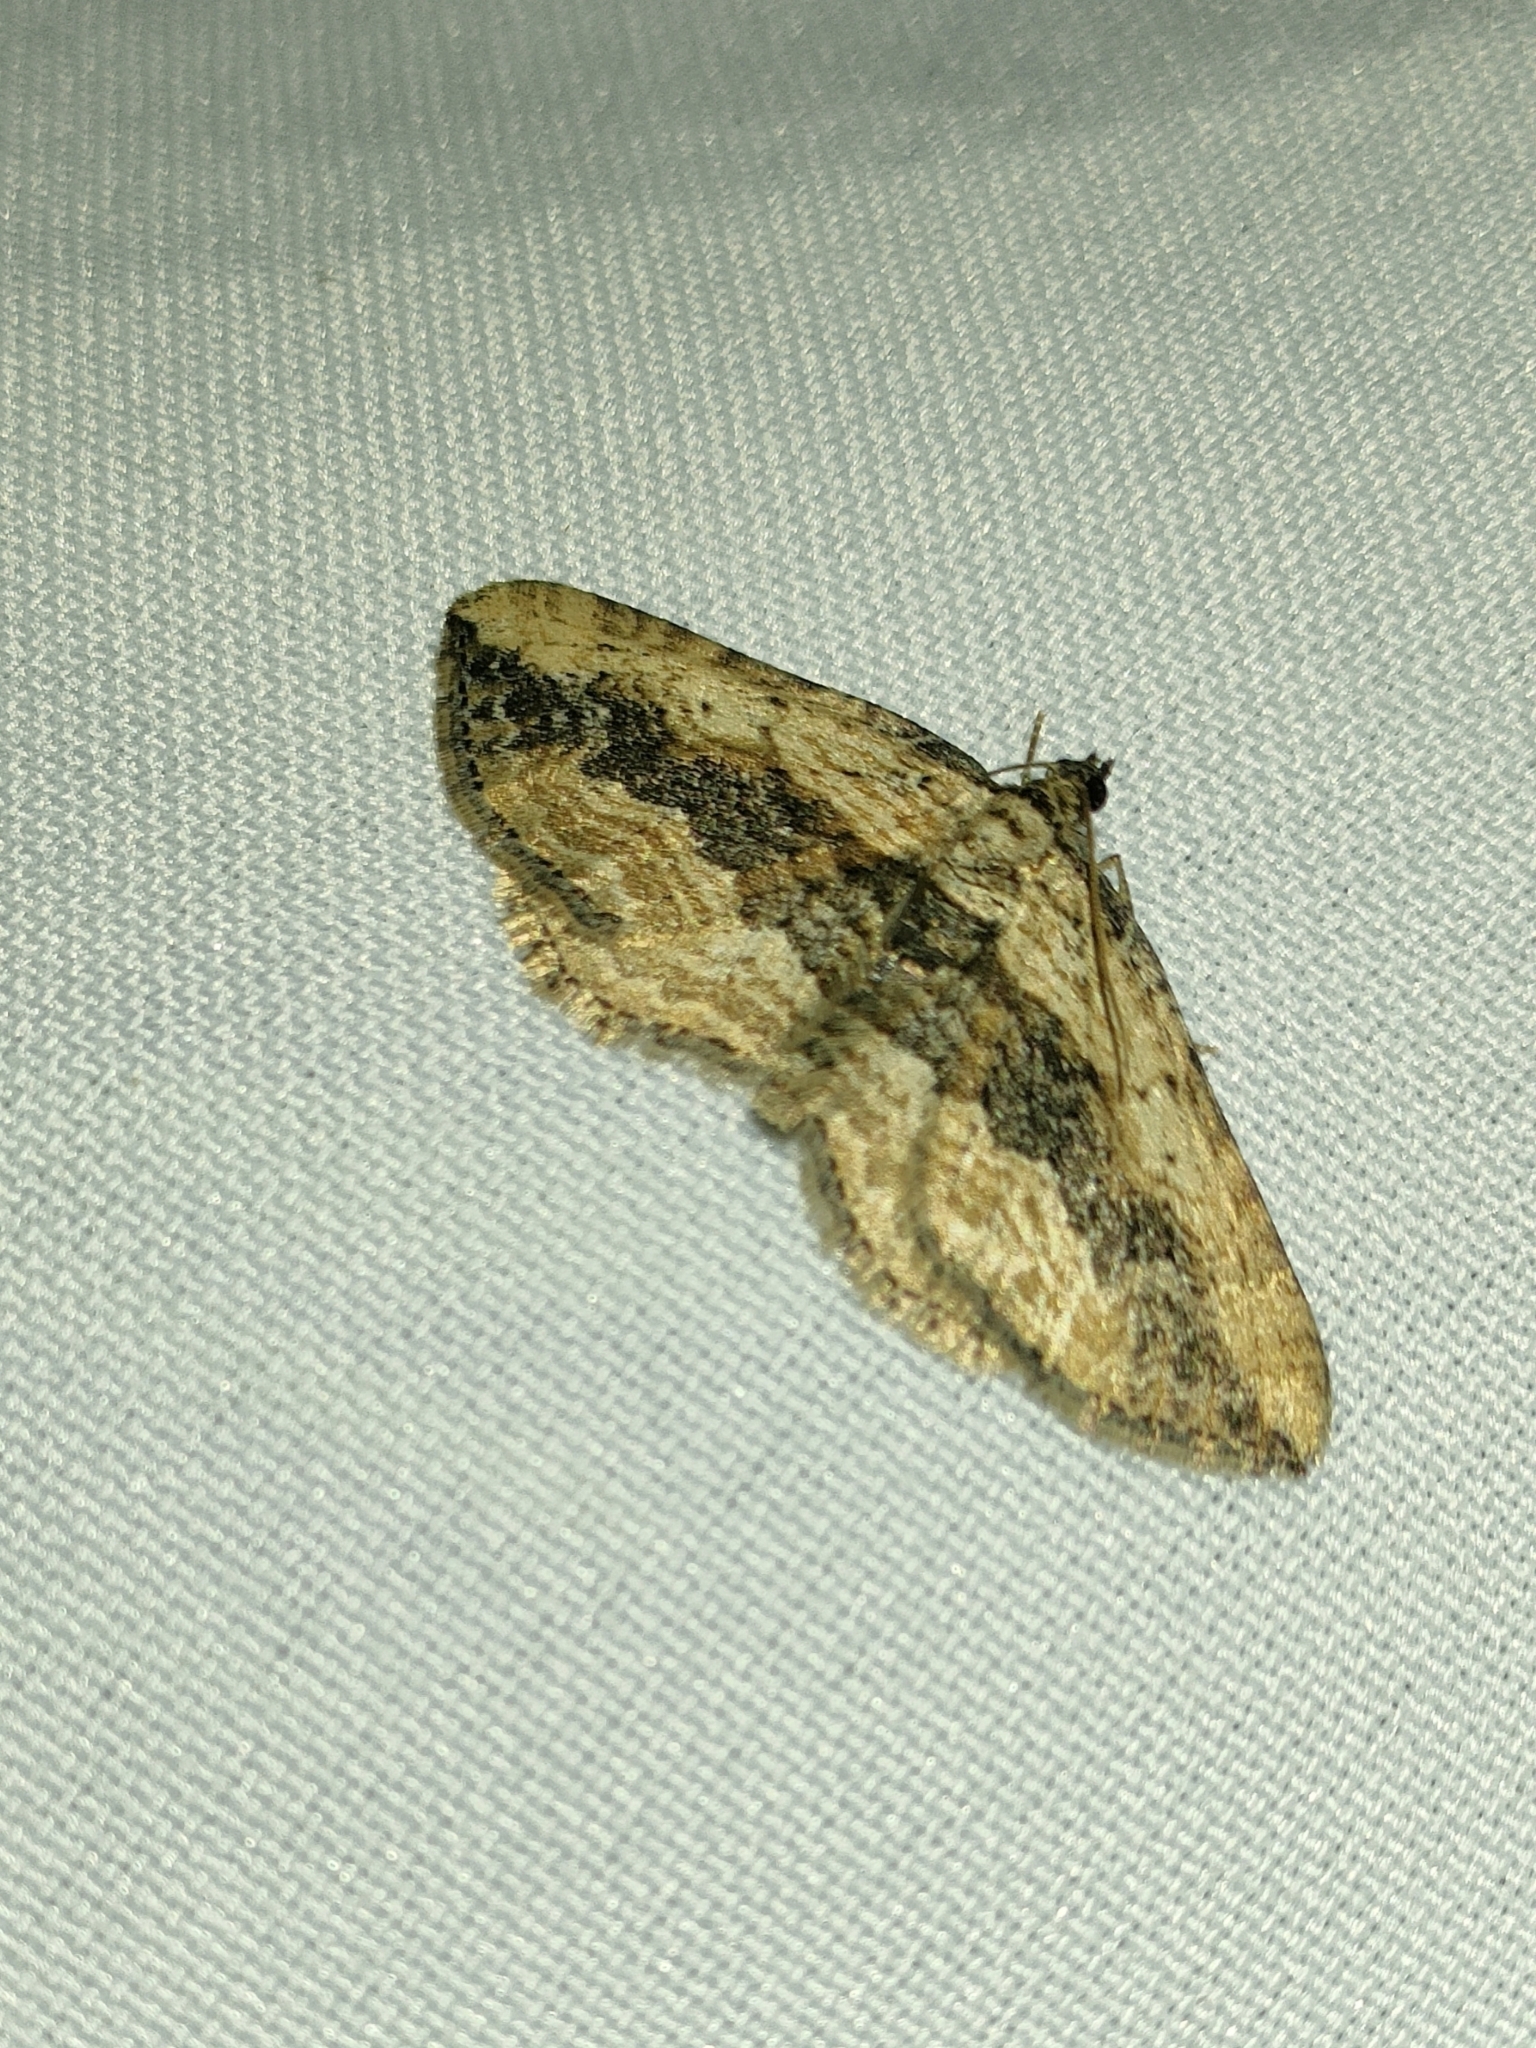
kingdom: Animalia
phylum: Arthropoda
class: Insecta
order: Lepidoptera
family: Geometridae
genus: Horisme
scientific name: Horisme vitalbata
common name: Small waved umber
